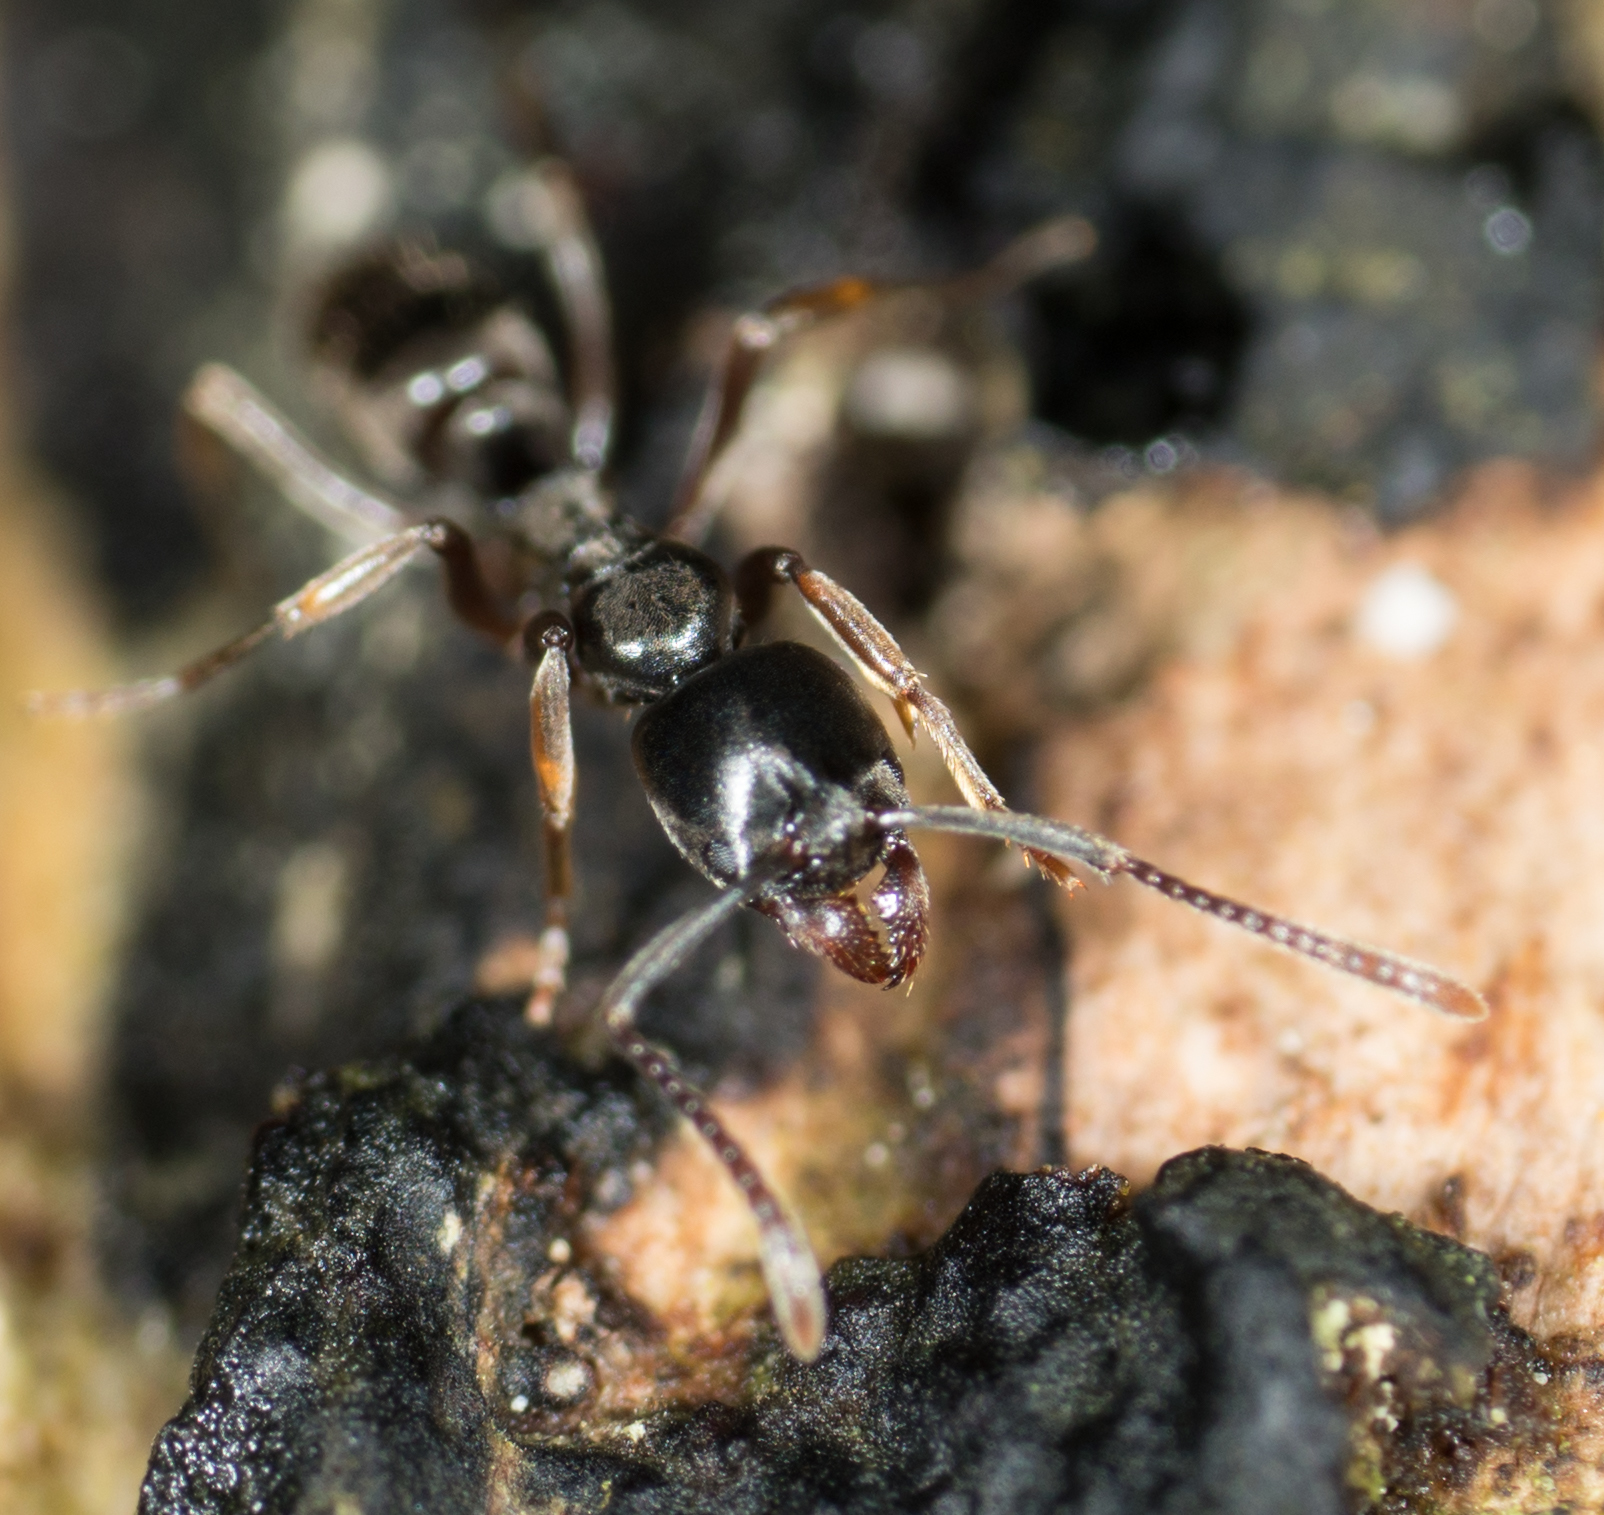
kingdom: Animalia
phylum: Arthropoda
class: Insecta
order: Hymenoptera
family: Formicidae
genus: Pachycondyla
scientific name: Pachycondyla chinensis
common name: Asian needle ant
